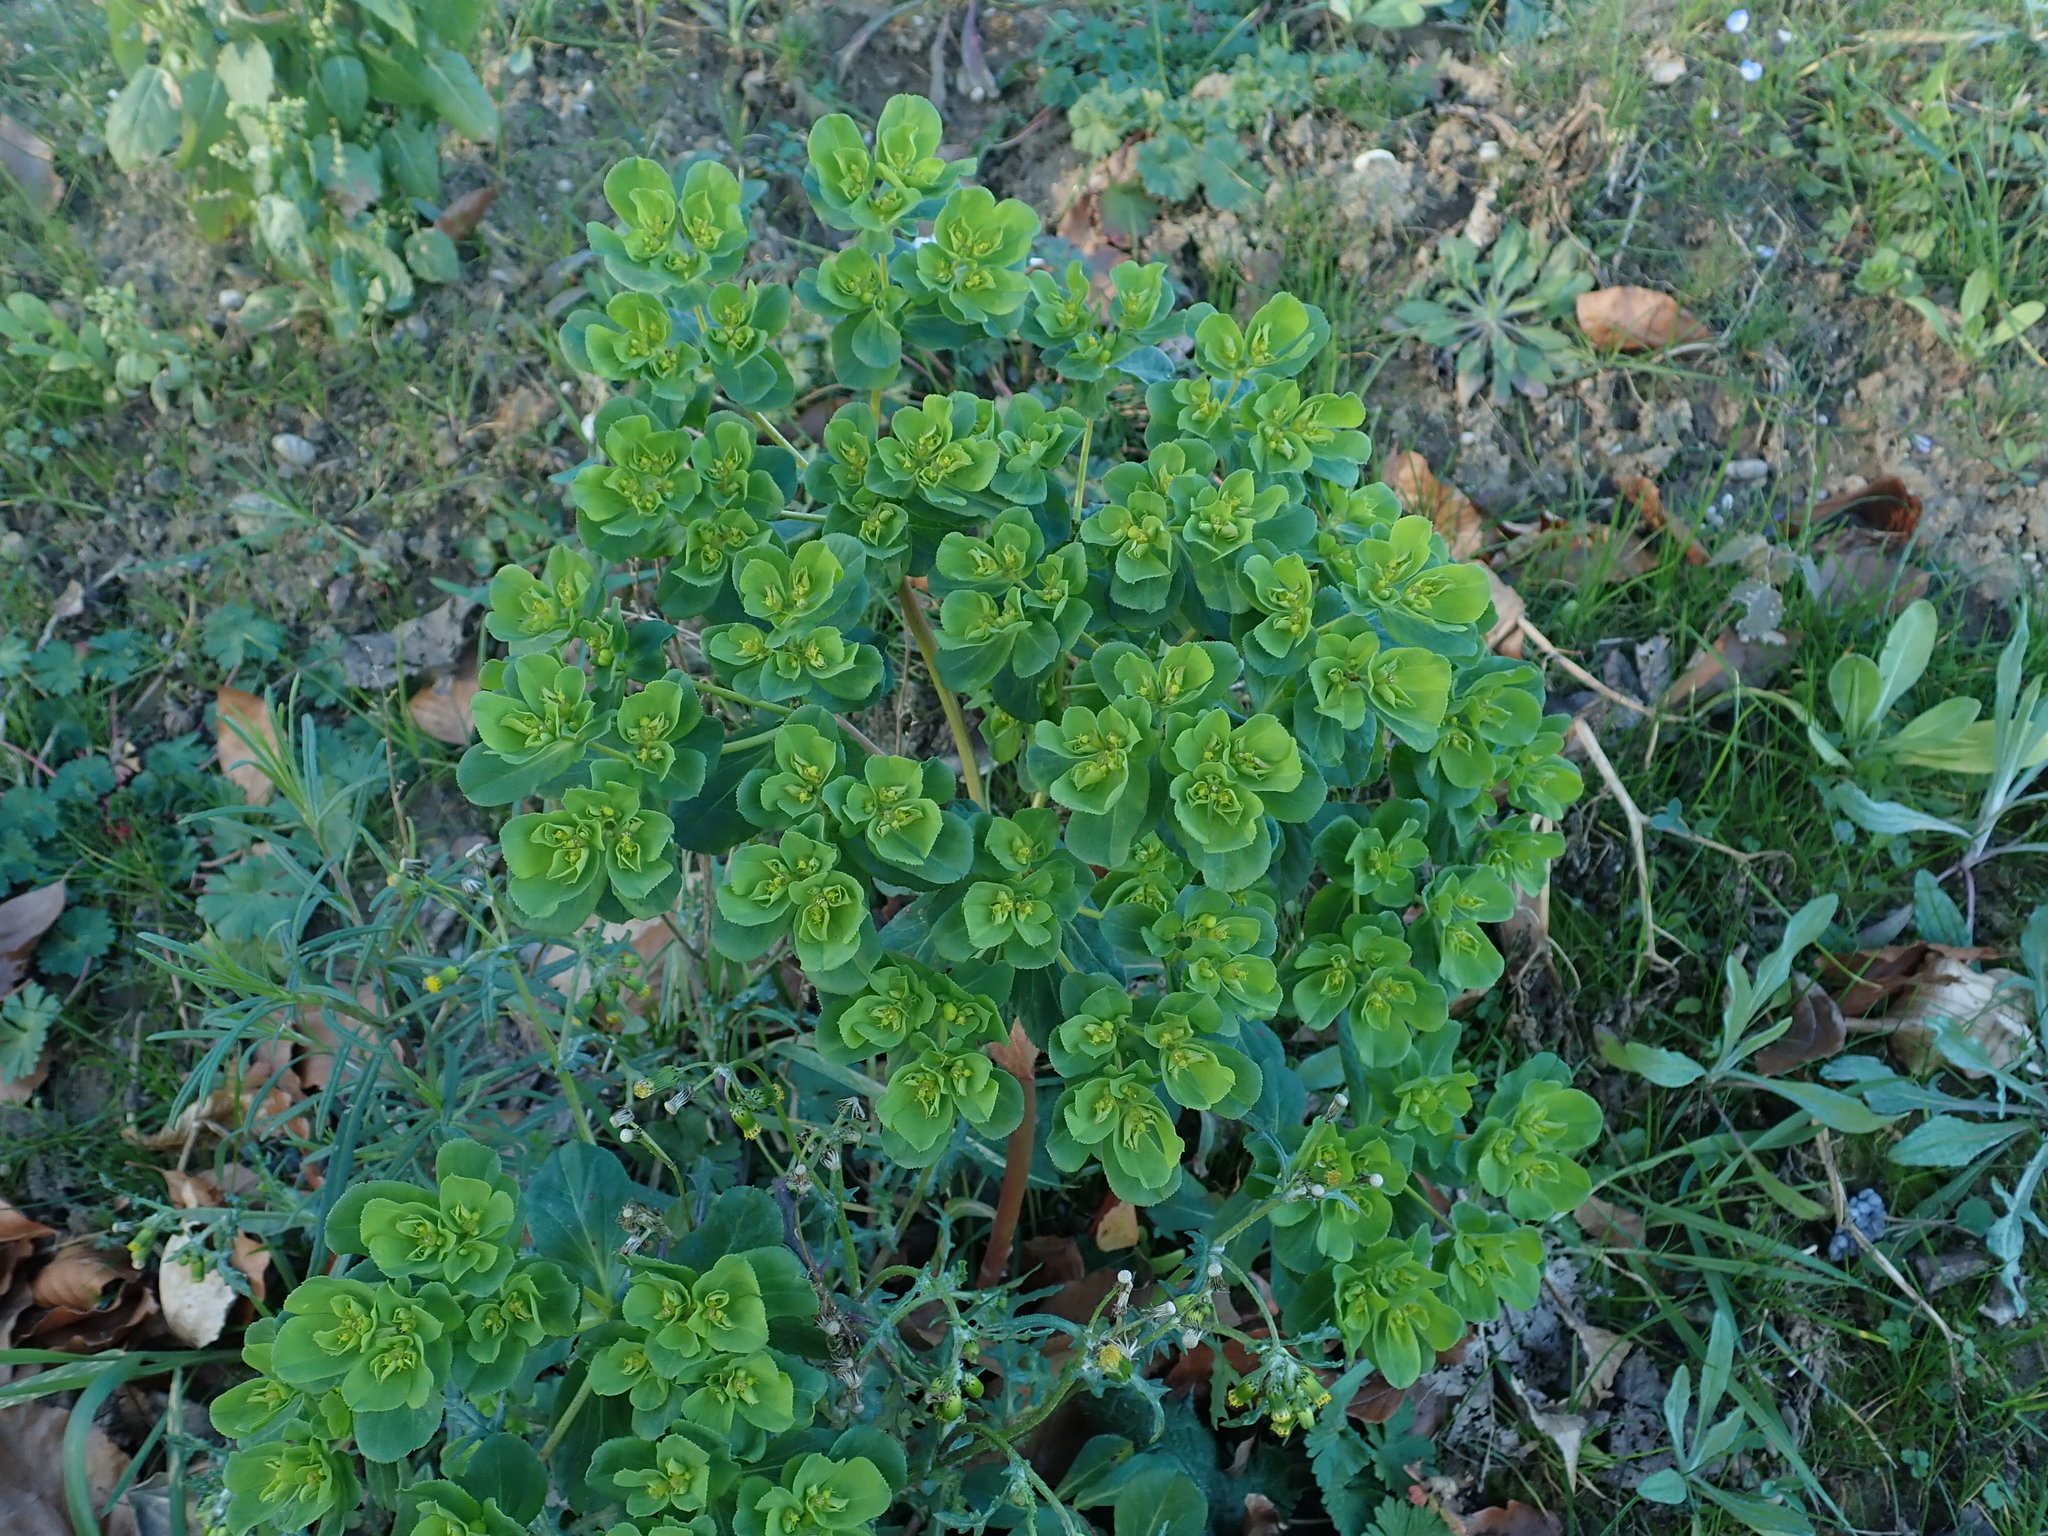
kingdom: Plantae
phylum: Tracheophyta
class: Magnoliopsida
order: Malpighiales
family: Euphorbiaceae
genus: Euphorbia
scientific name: Euphorbia helioscopia
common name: Sun spurge
